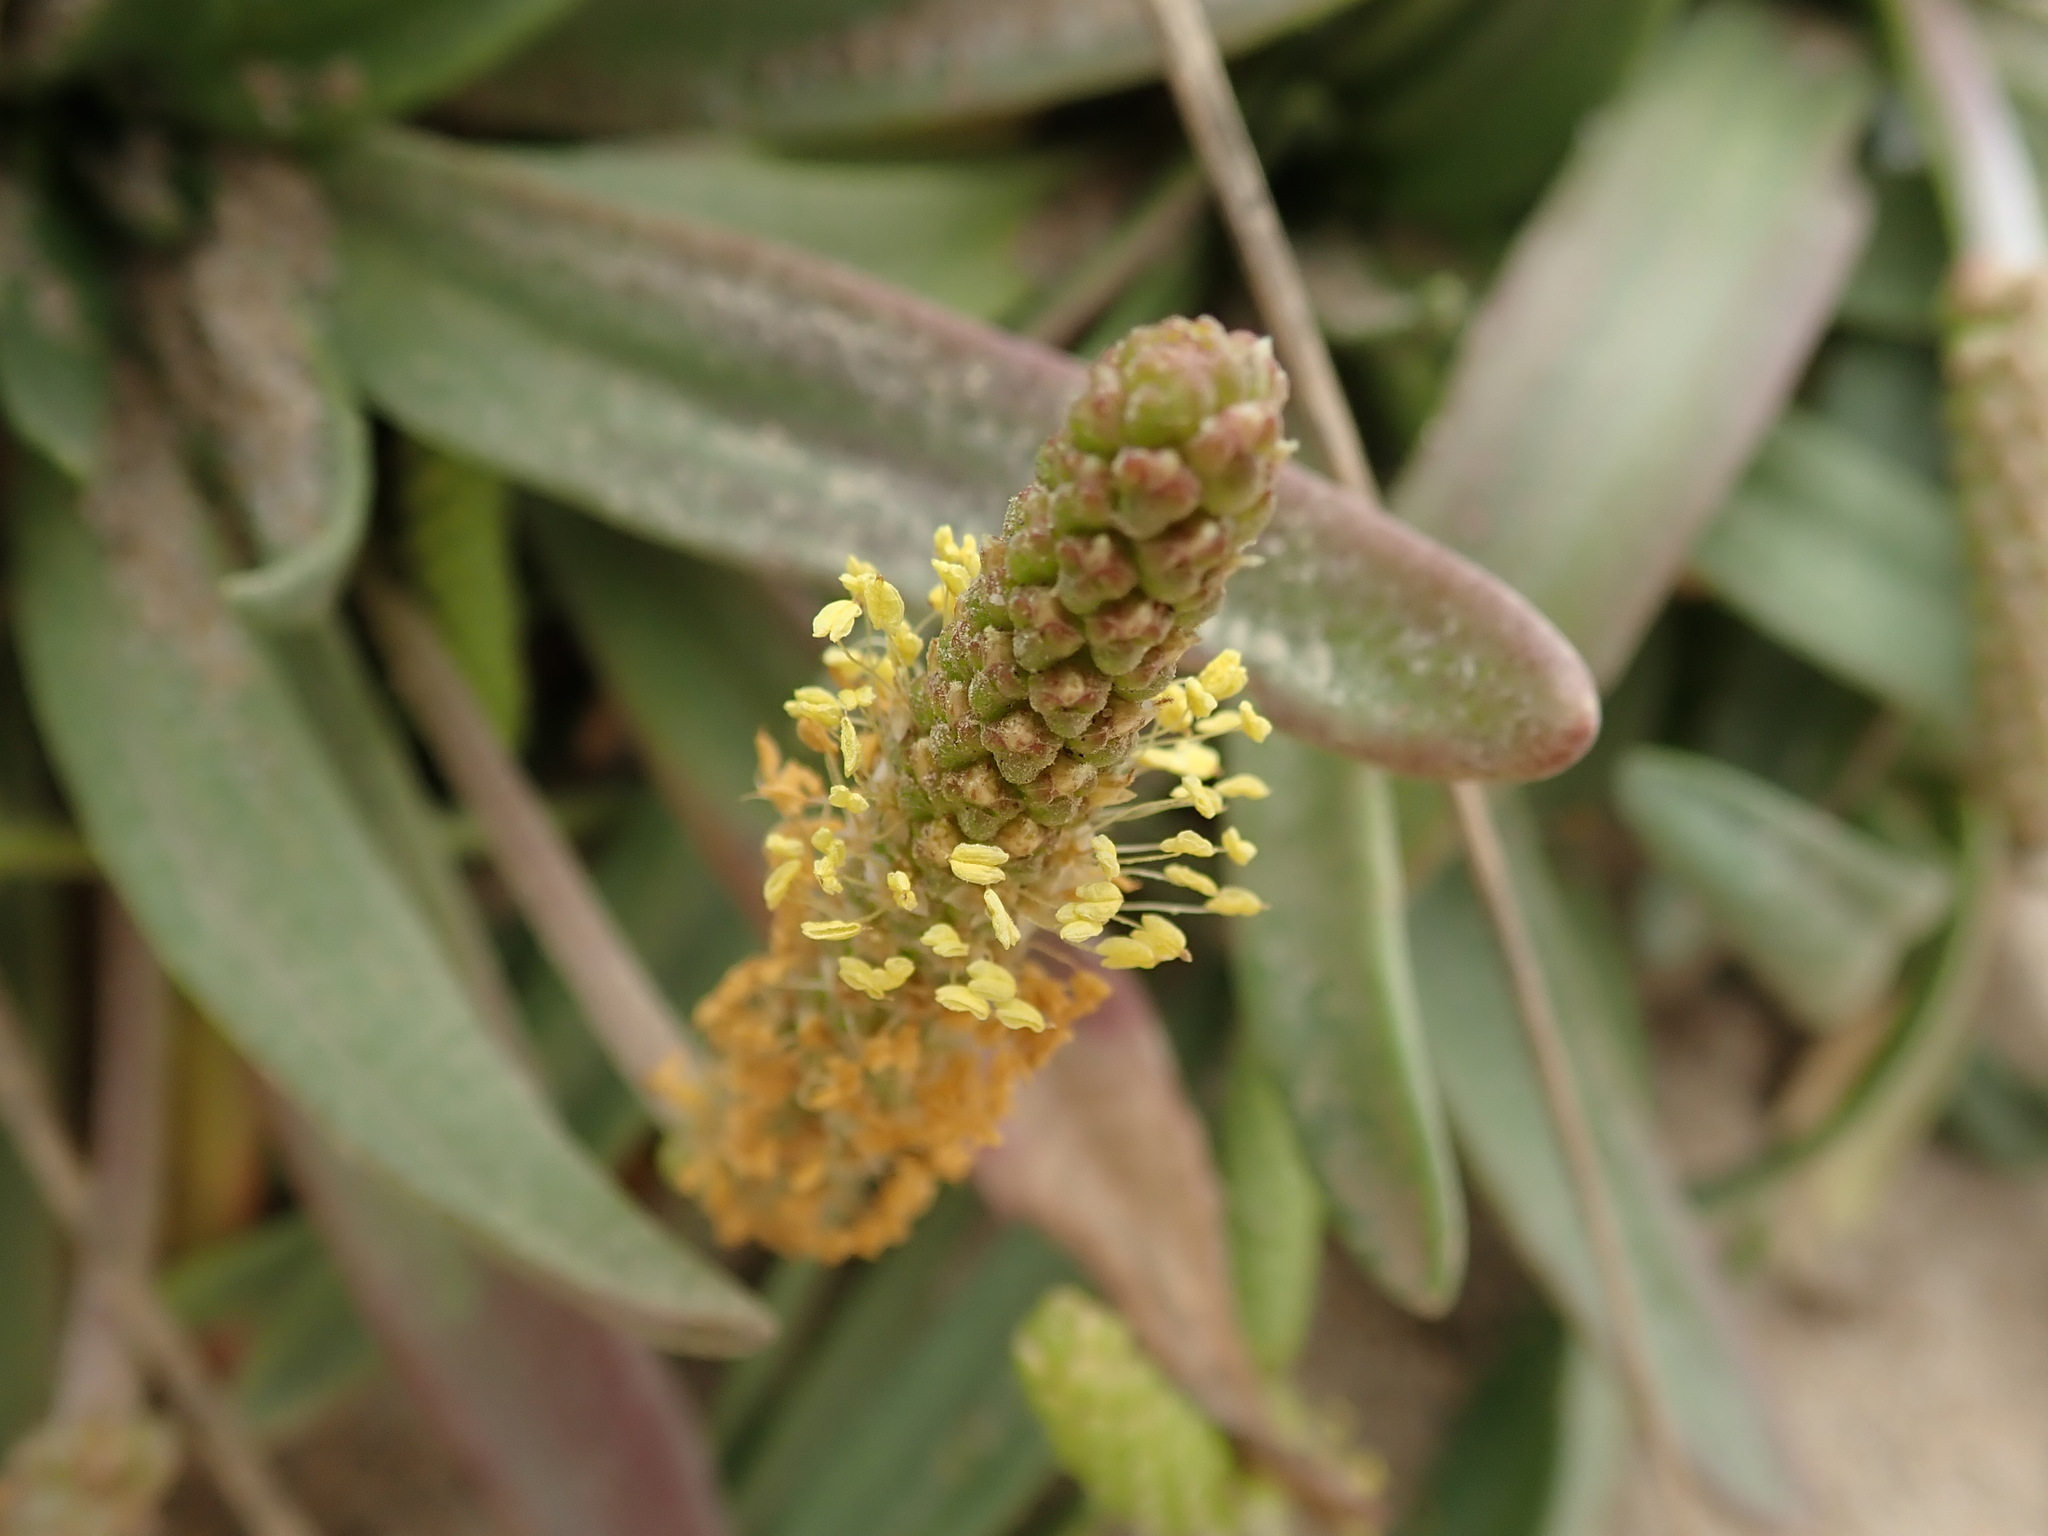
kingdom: Plantae
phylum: Tracheophyta
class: Magnoliopsida
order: Lamiales
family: Plantaginaceae
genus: Plantago
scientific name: Plantago maritima
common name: Sea plantain
